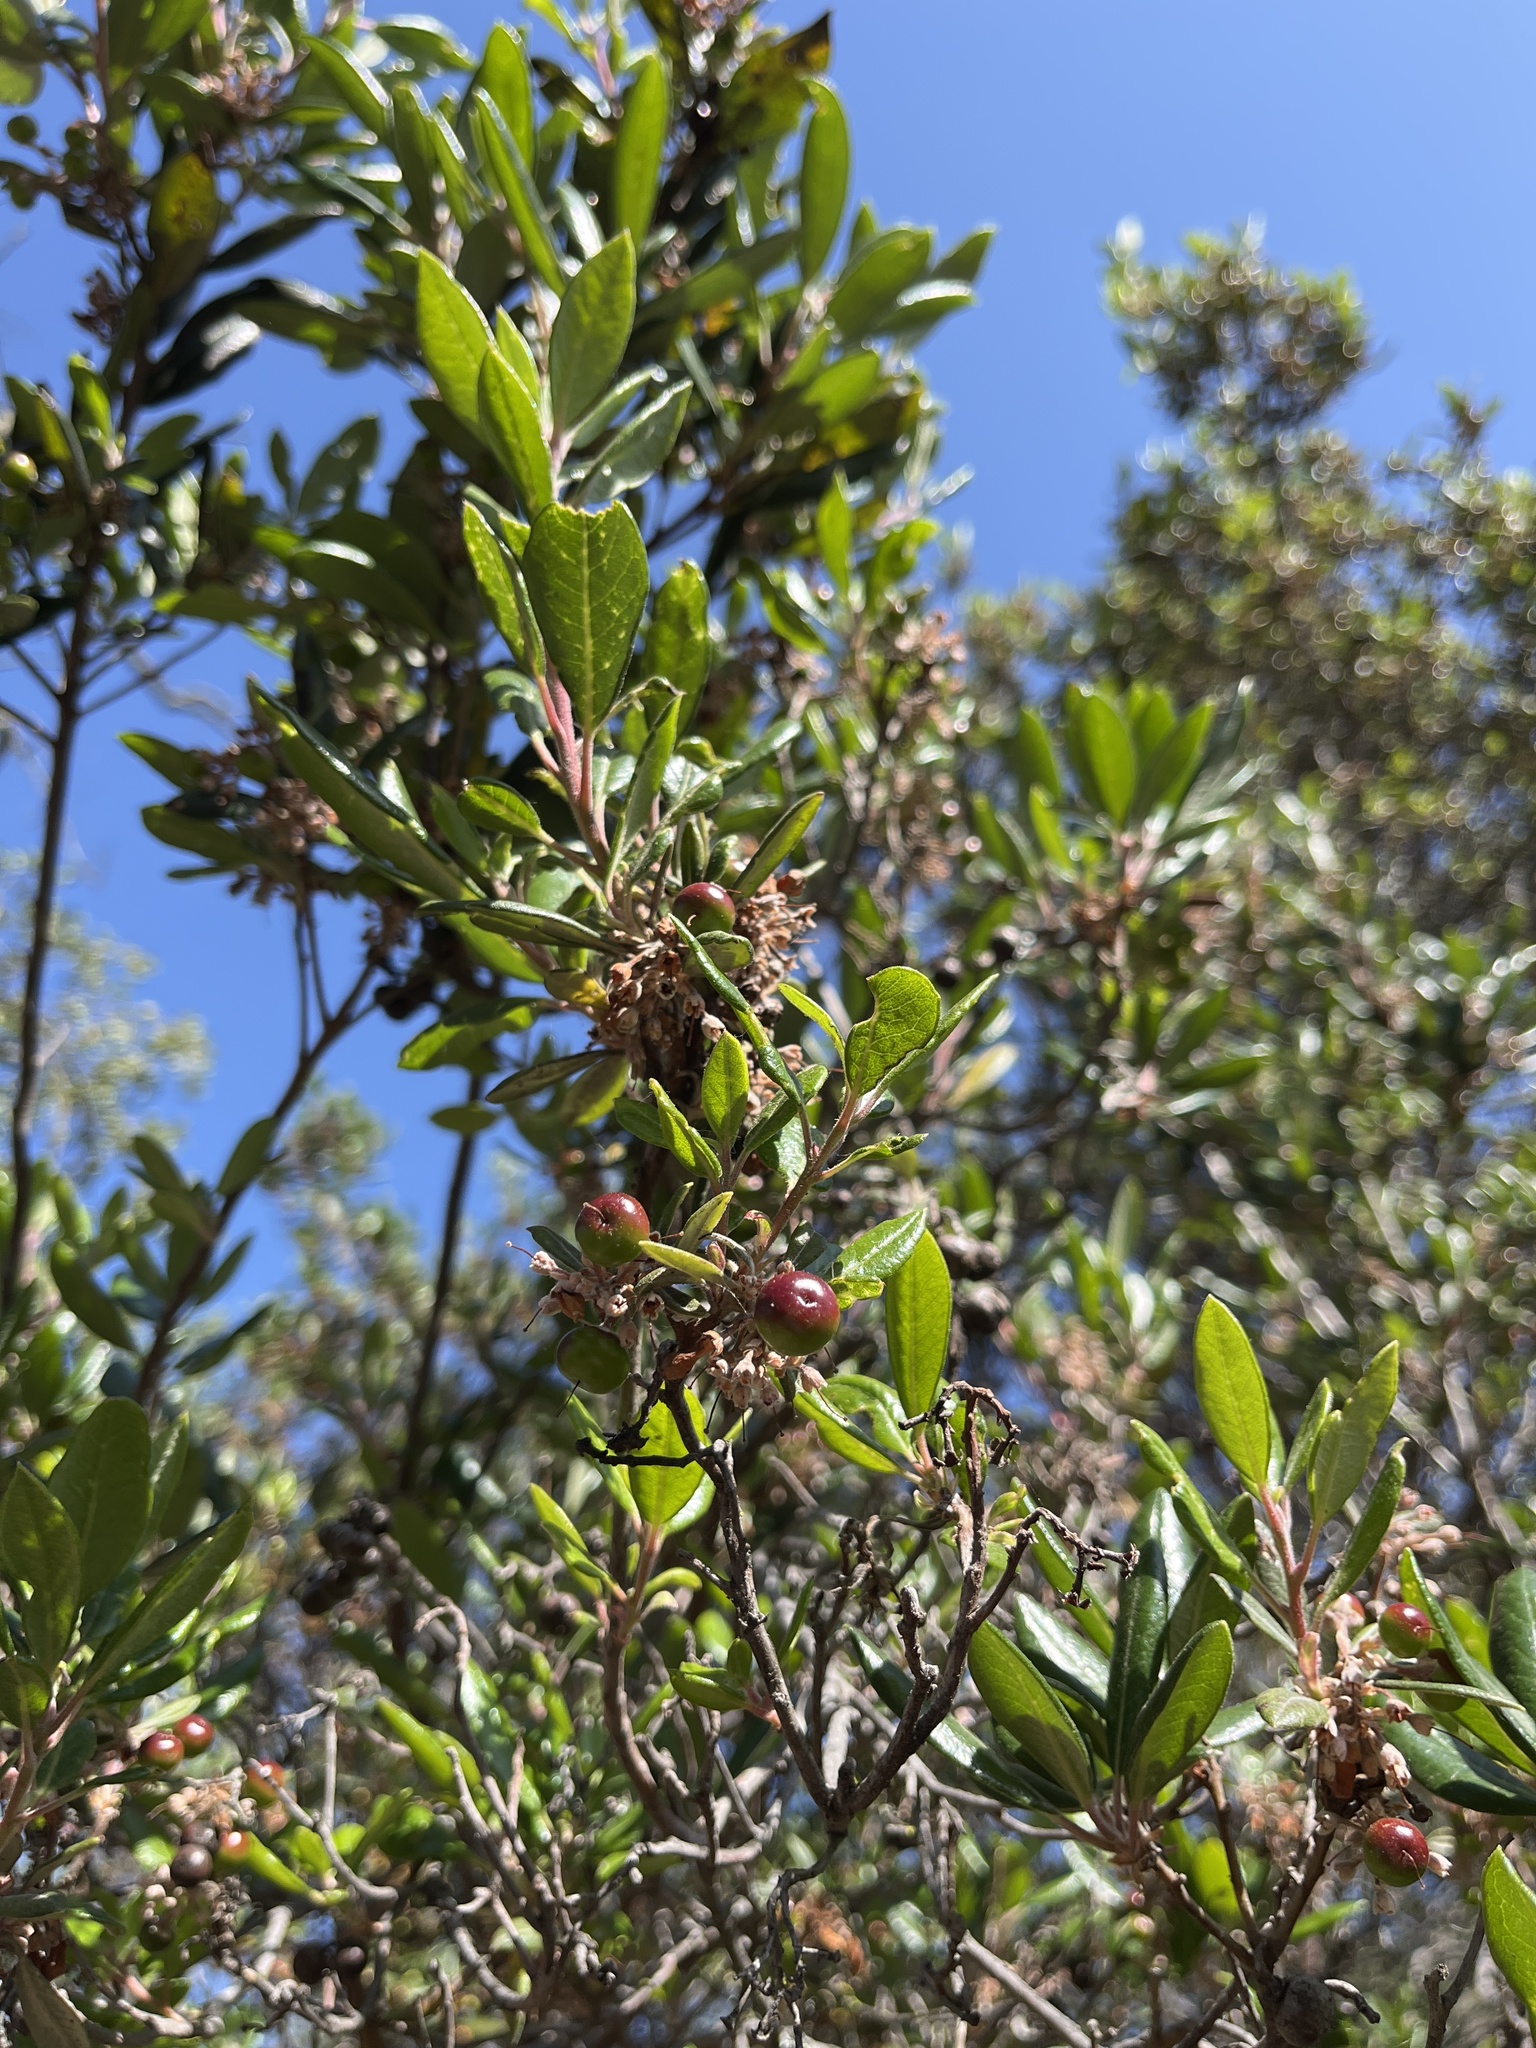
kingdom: Plantae
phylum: Tracheophyta
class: Magnoliopsida
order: Ericales
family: Ericaceae
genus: Arctostaphylos
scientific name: Arctostaphylos bicolor
